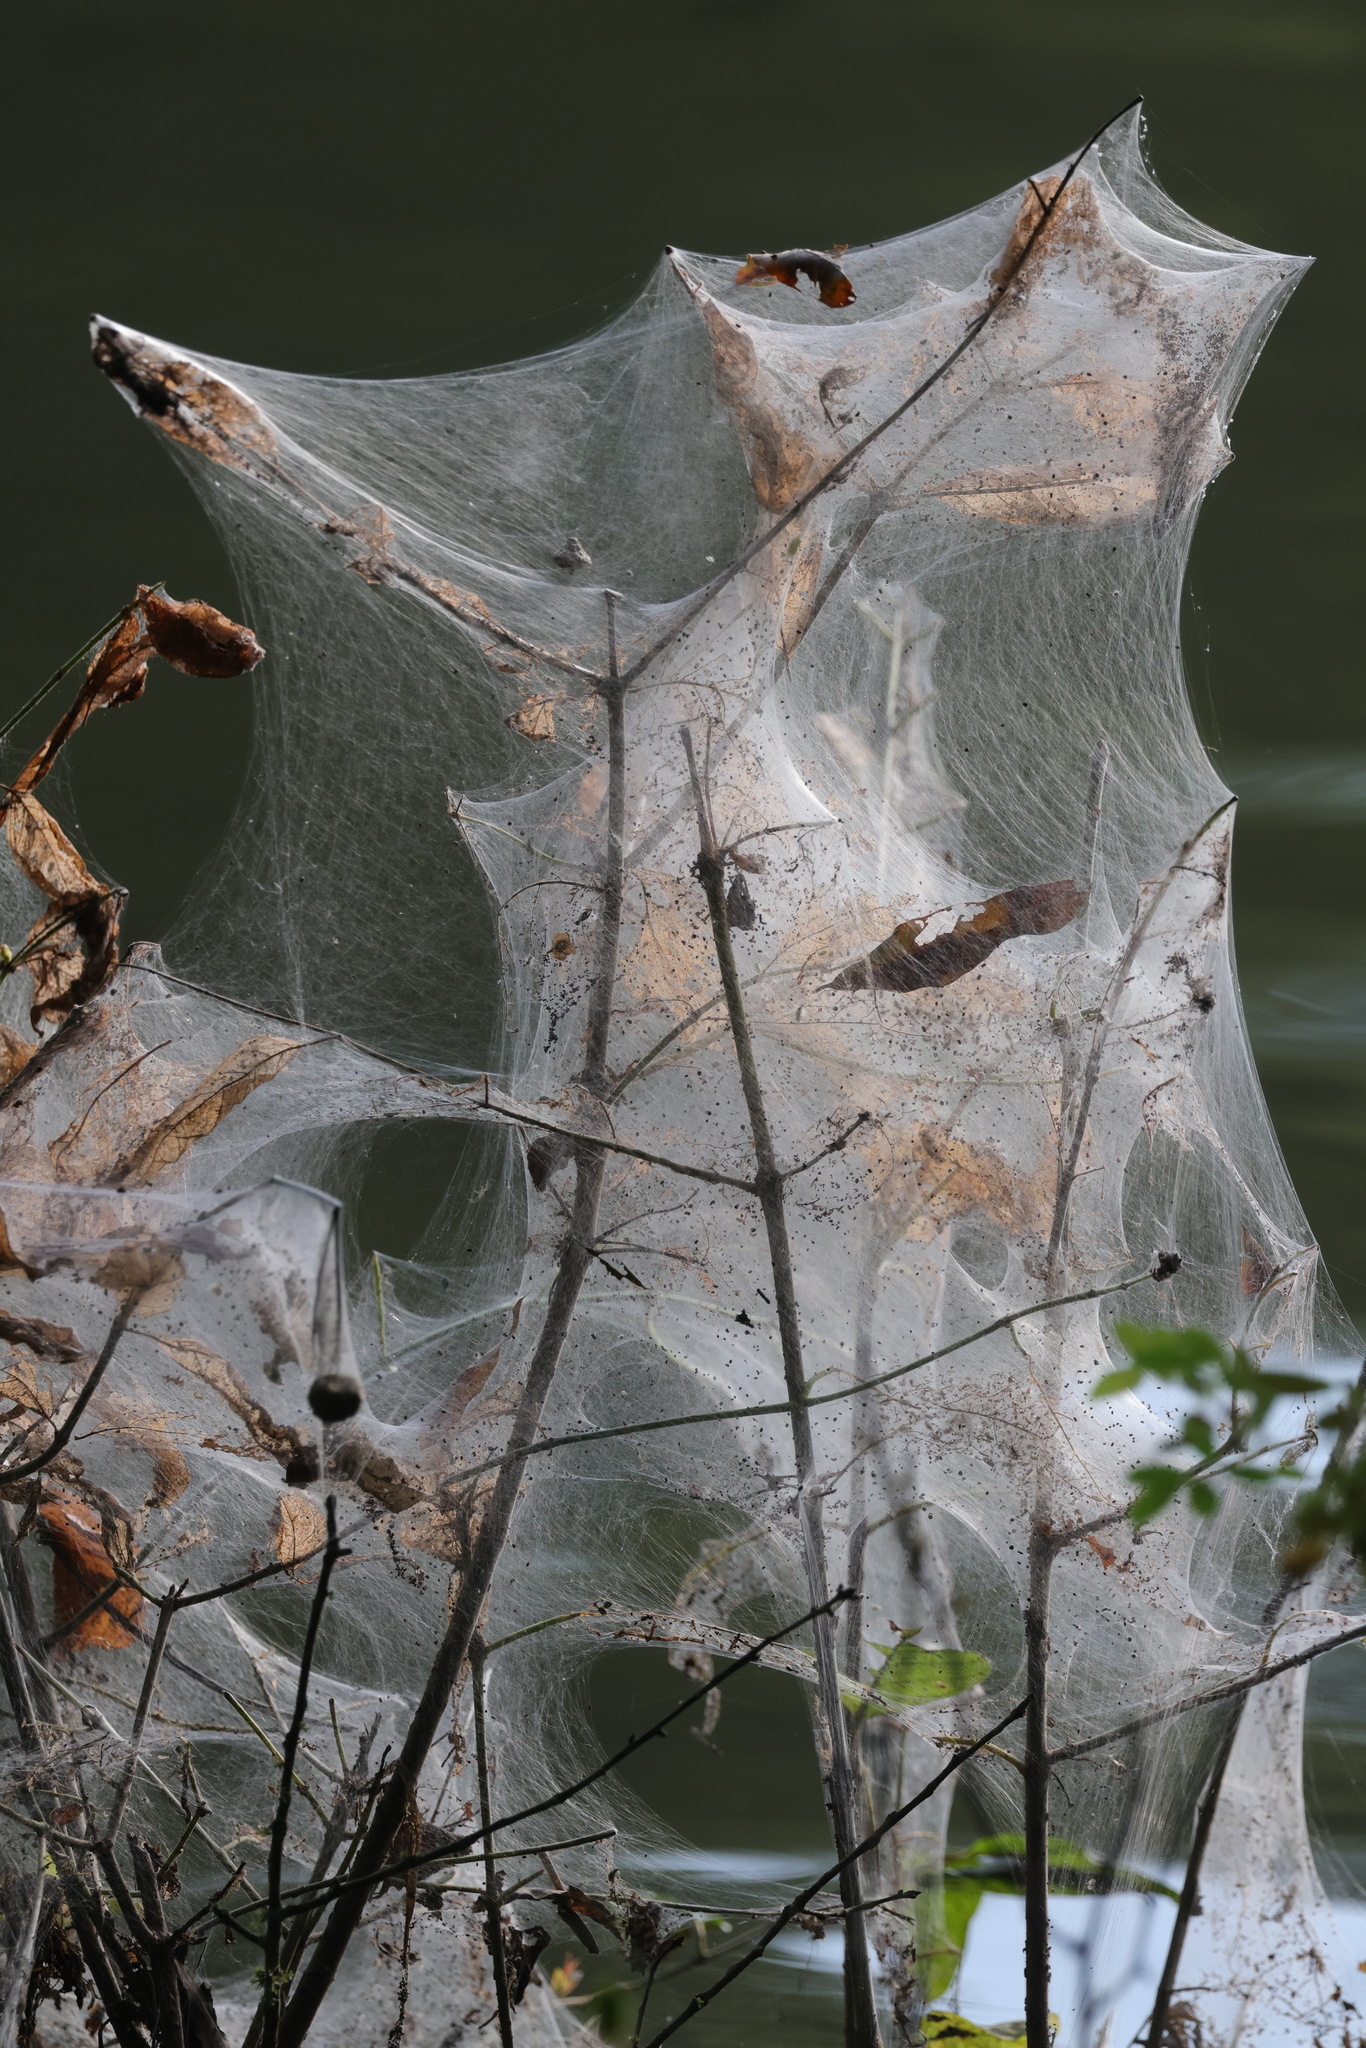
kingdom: Animalia
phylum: Arthropoda
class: Insecta
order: Lepidoptera
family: Erebidae
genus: Hyphantria
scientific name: Hyphantria cunea
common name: American white moth
